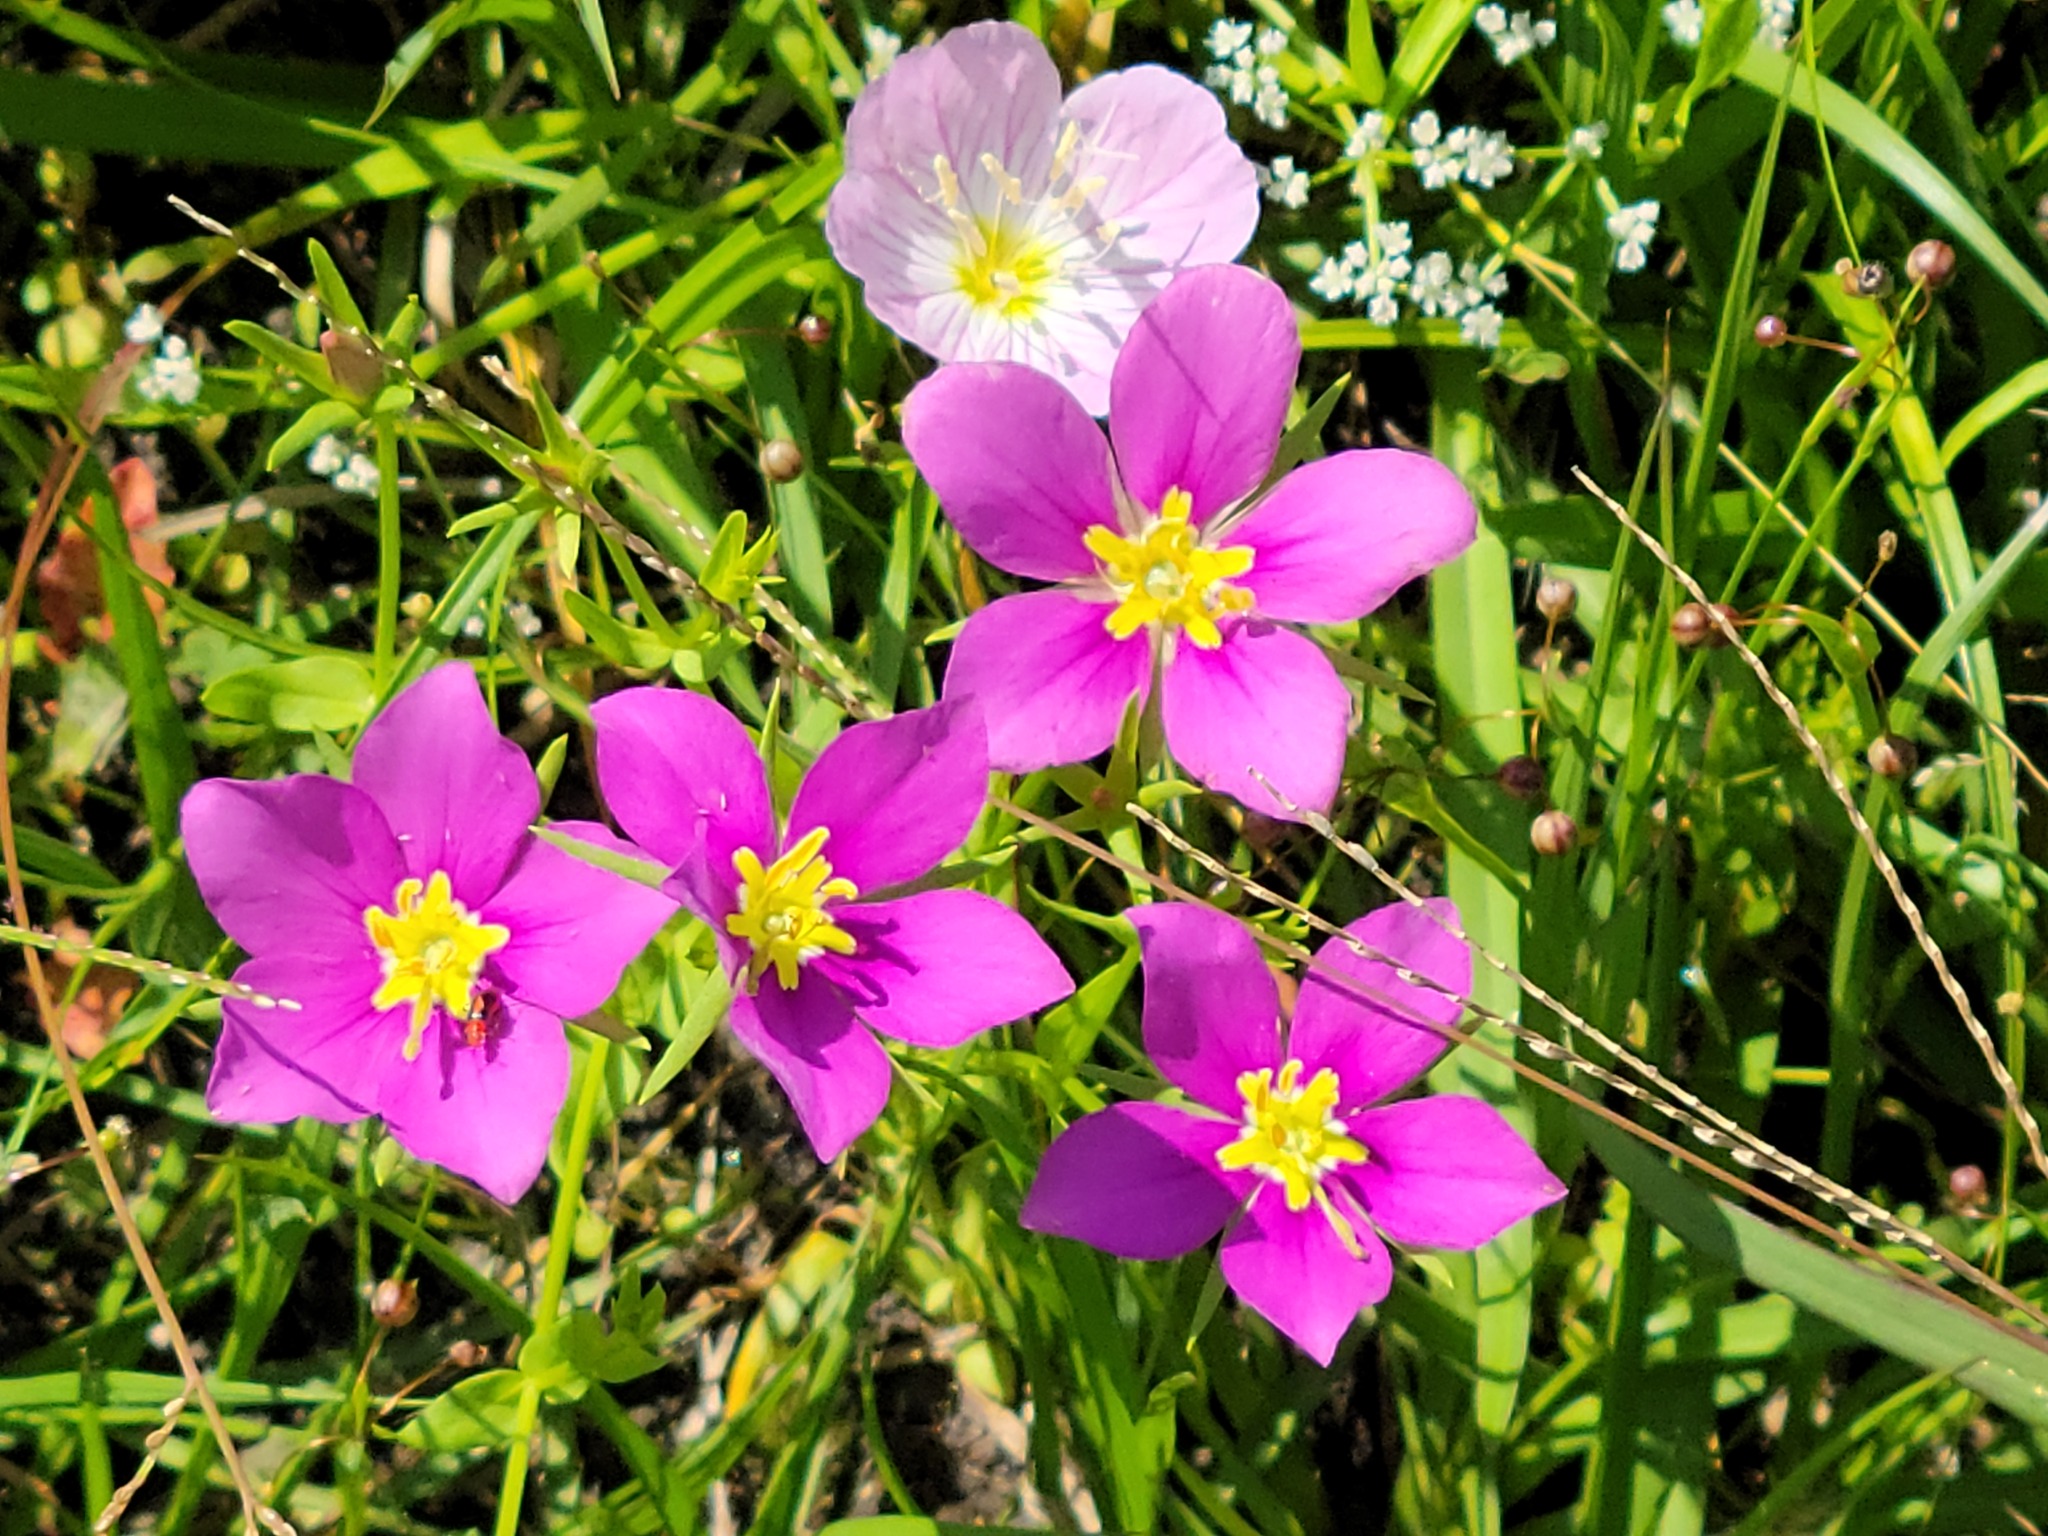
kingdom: Plantae
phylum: Tracheophyta
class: Magnoliopsida
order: Gentianales
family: Gentianaceae
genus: Sabatia
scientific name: Sabatia campestris
